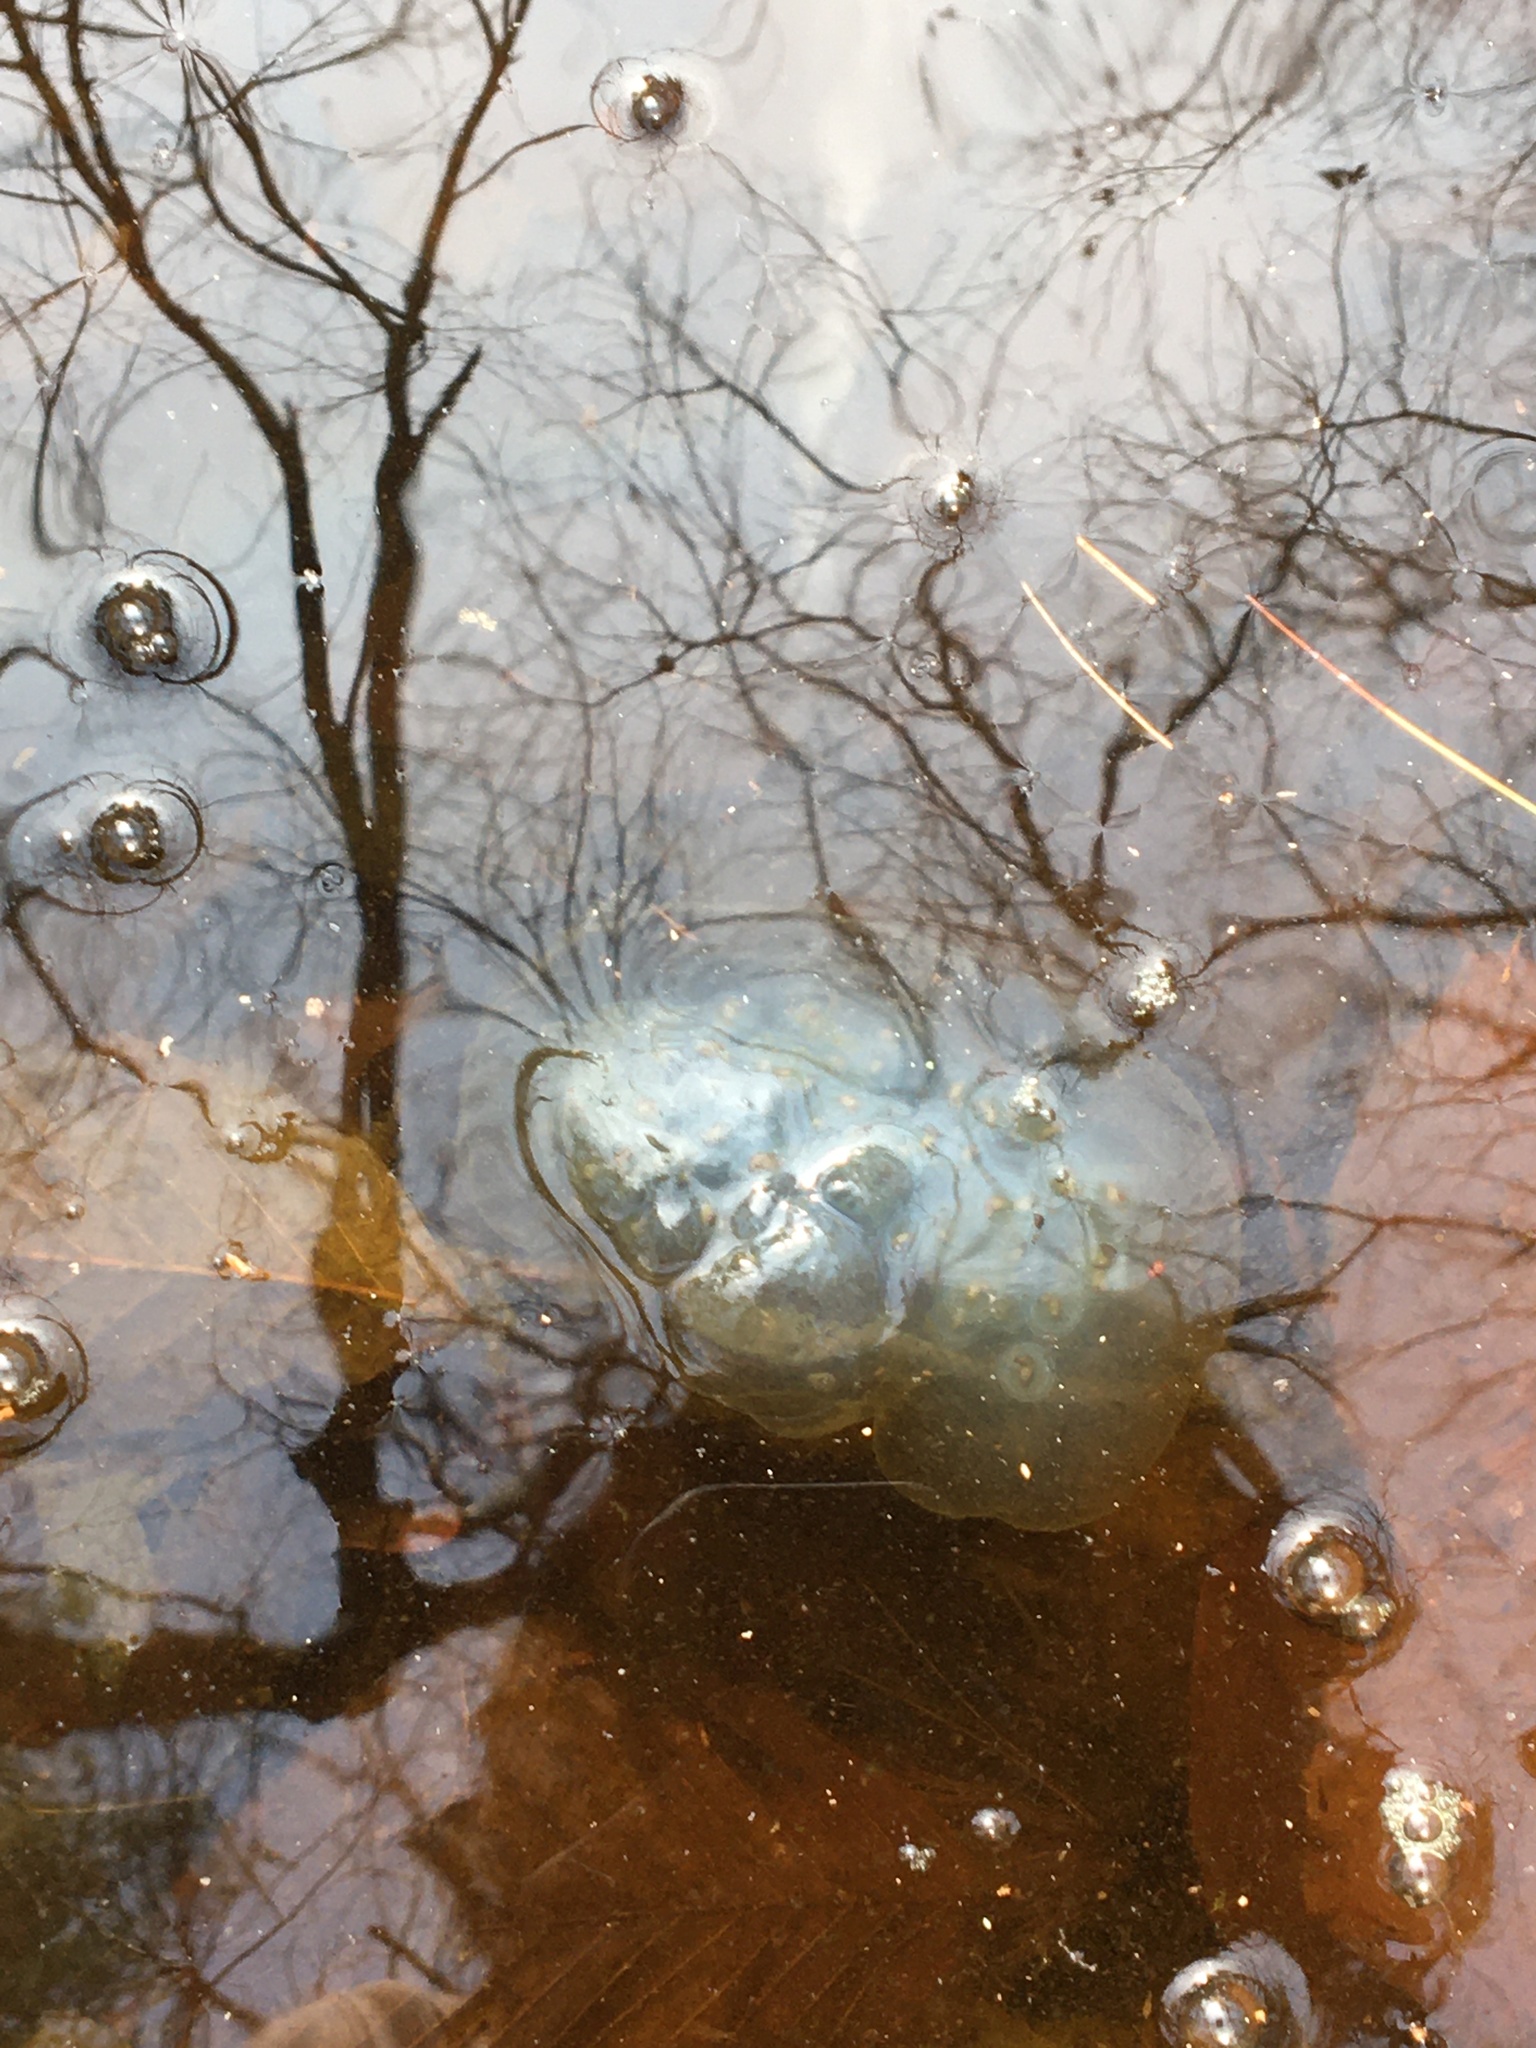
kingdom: Animalia
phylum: Chordata
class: Amphibia
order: Caudata
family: Ambystomatidae
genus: Ambystoma
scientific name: Ambystoma maculatum
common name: Spotted salamander
